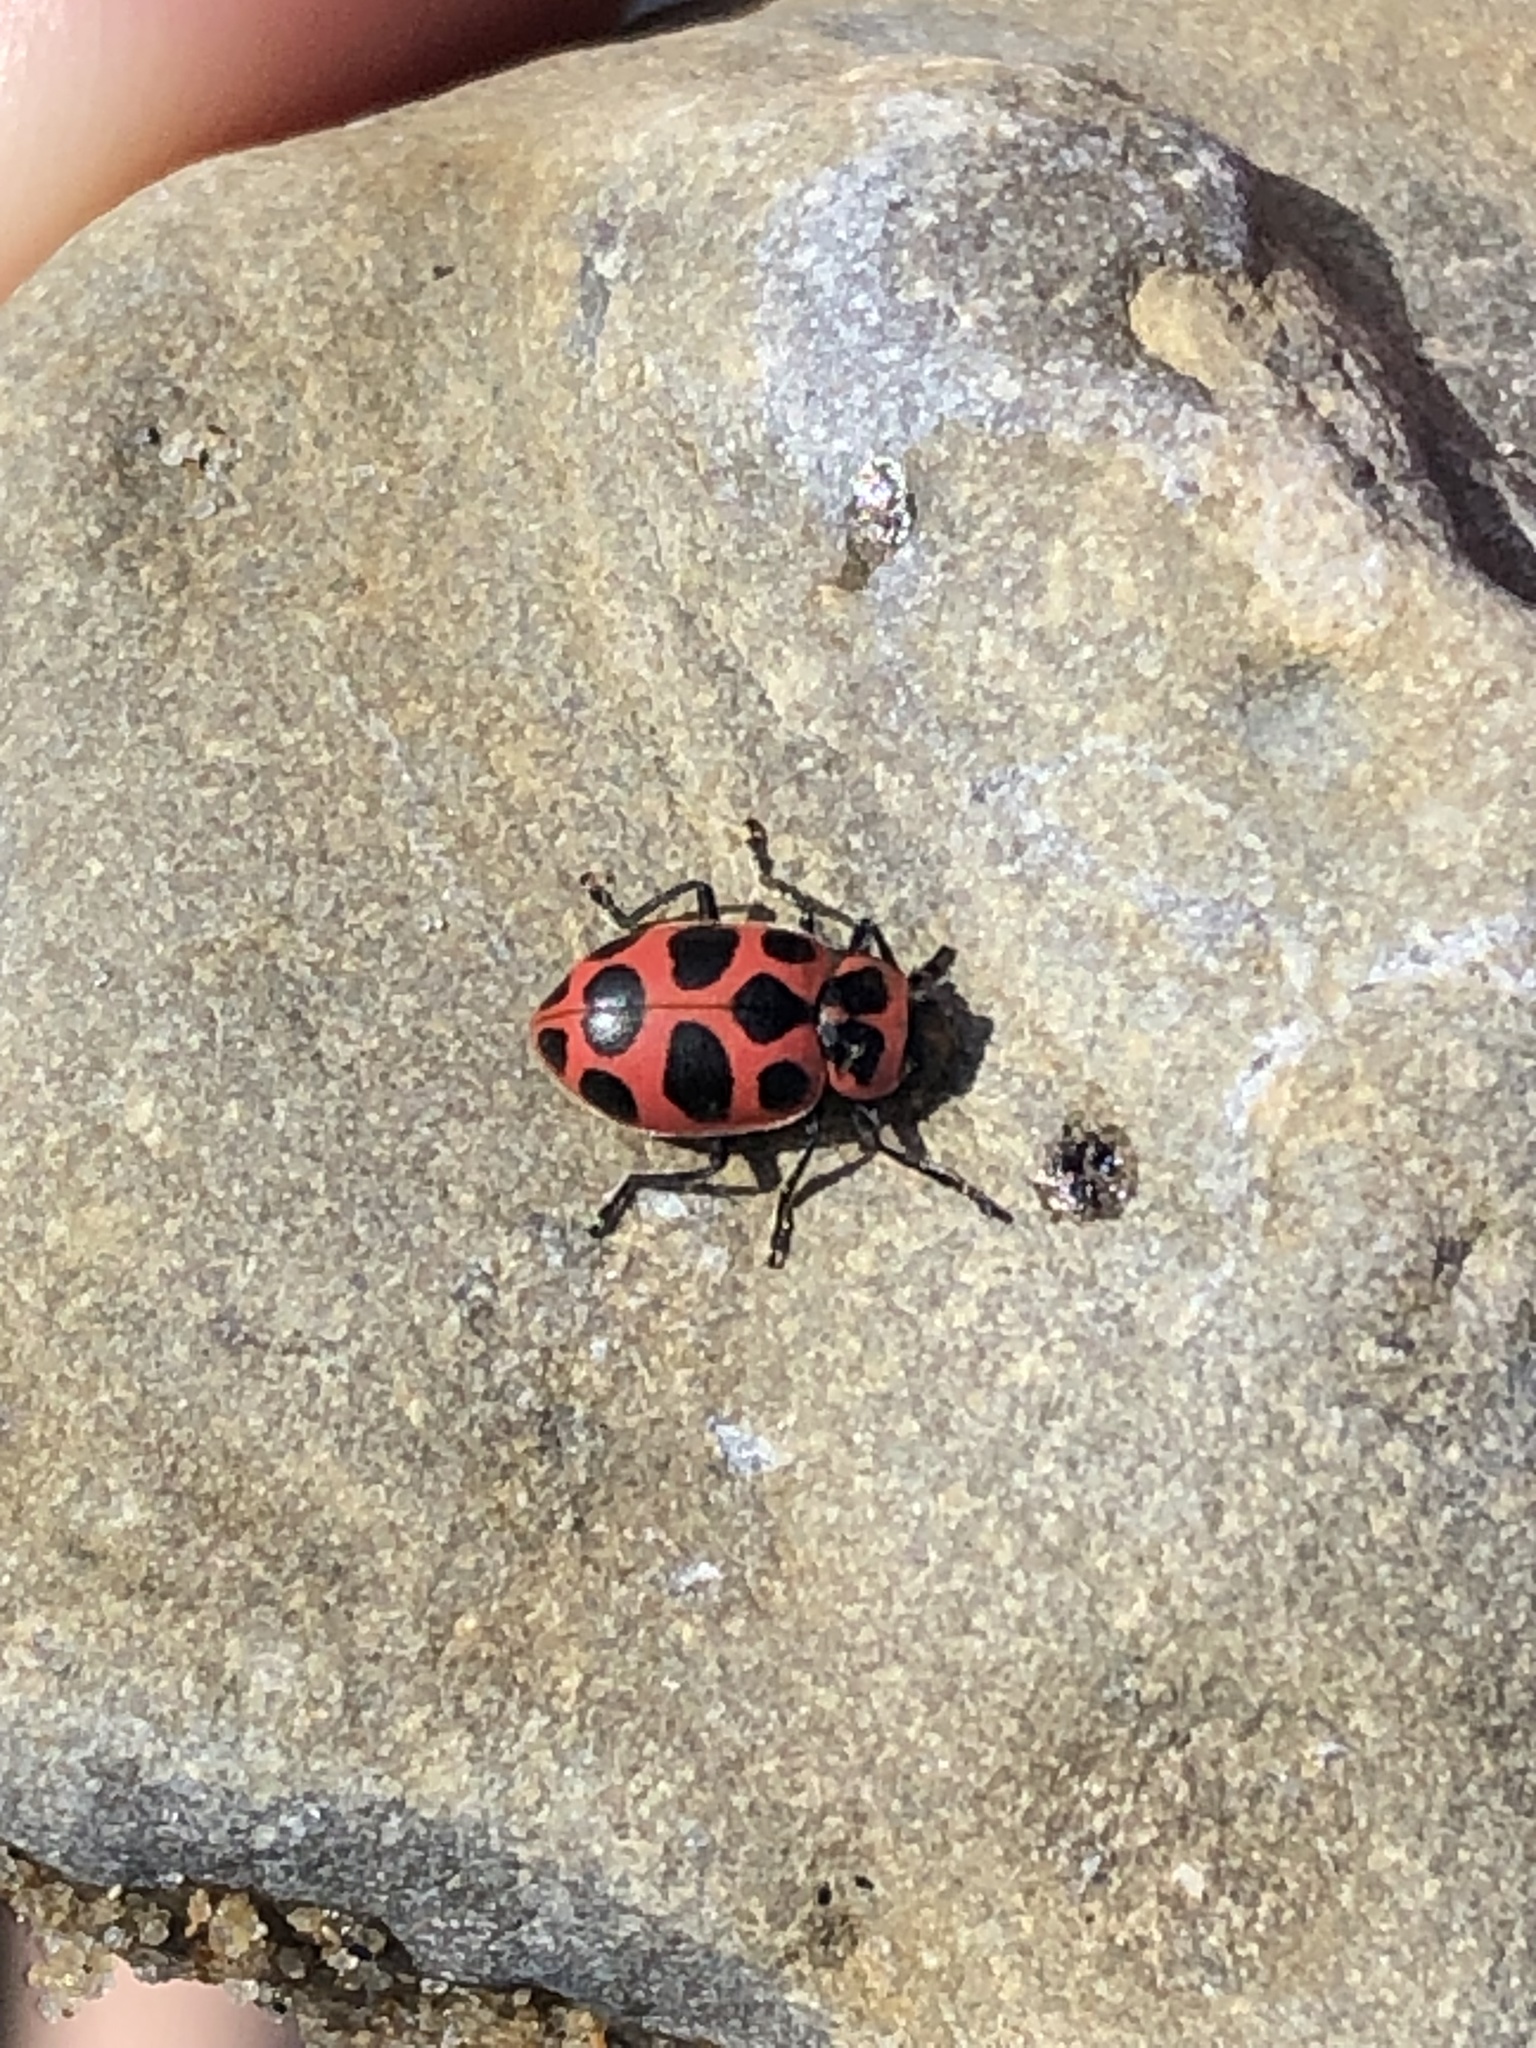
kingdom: Animalia
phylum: Arthropoda
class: Insecta
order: Coleoptera
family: Coccinellidae
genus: Coleomegilla
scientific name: Coleomegilla maculata
